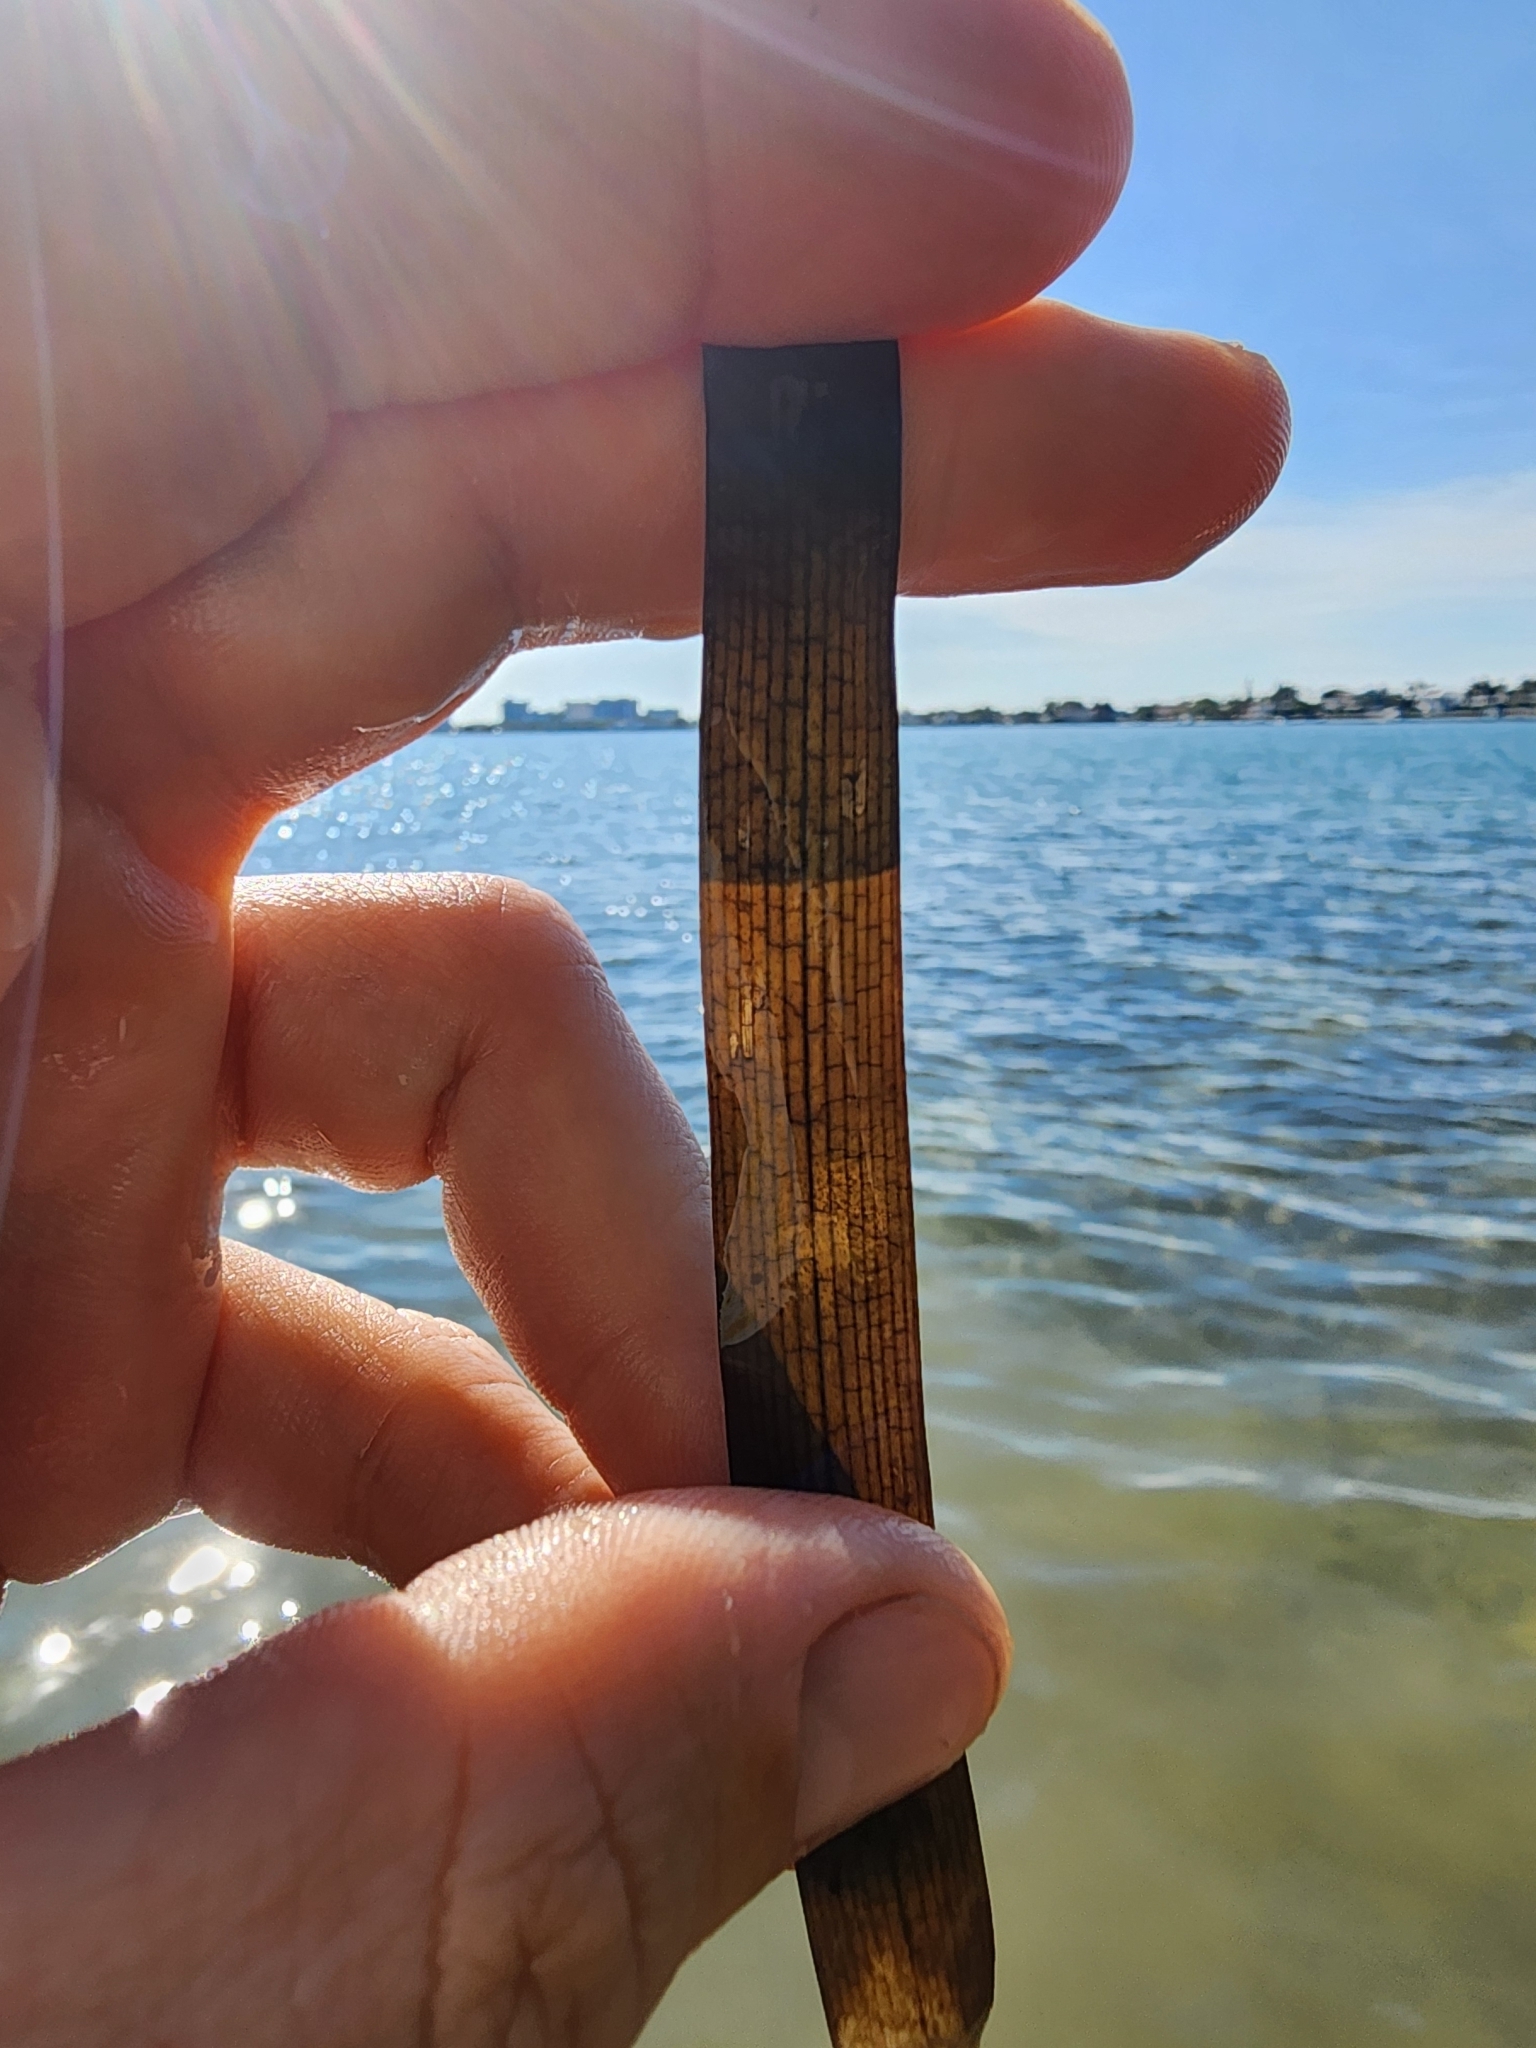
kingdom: Plantae
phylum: Tracheophyta
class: Liliopsida
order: Alismatales
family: Hydrocharitaceae
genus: Thalassia
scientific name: Thalassia testudinum
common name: Species code: tt
